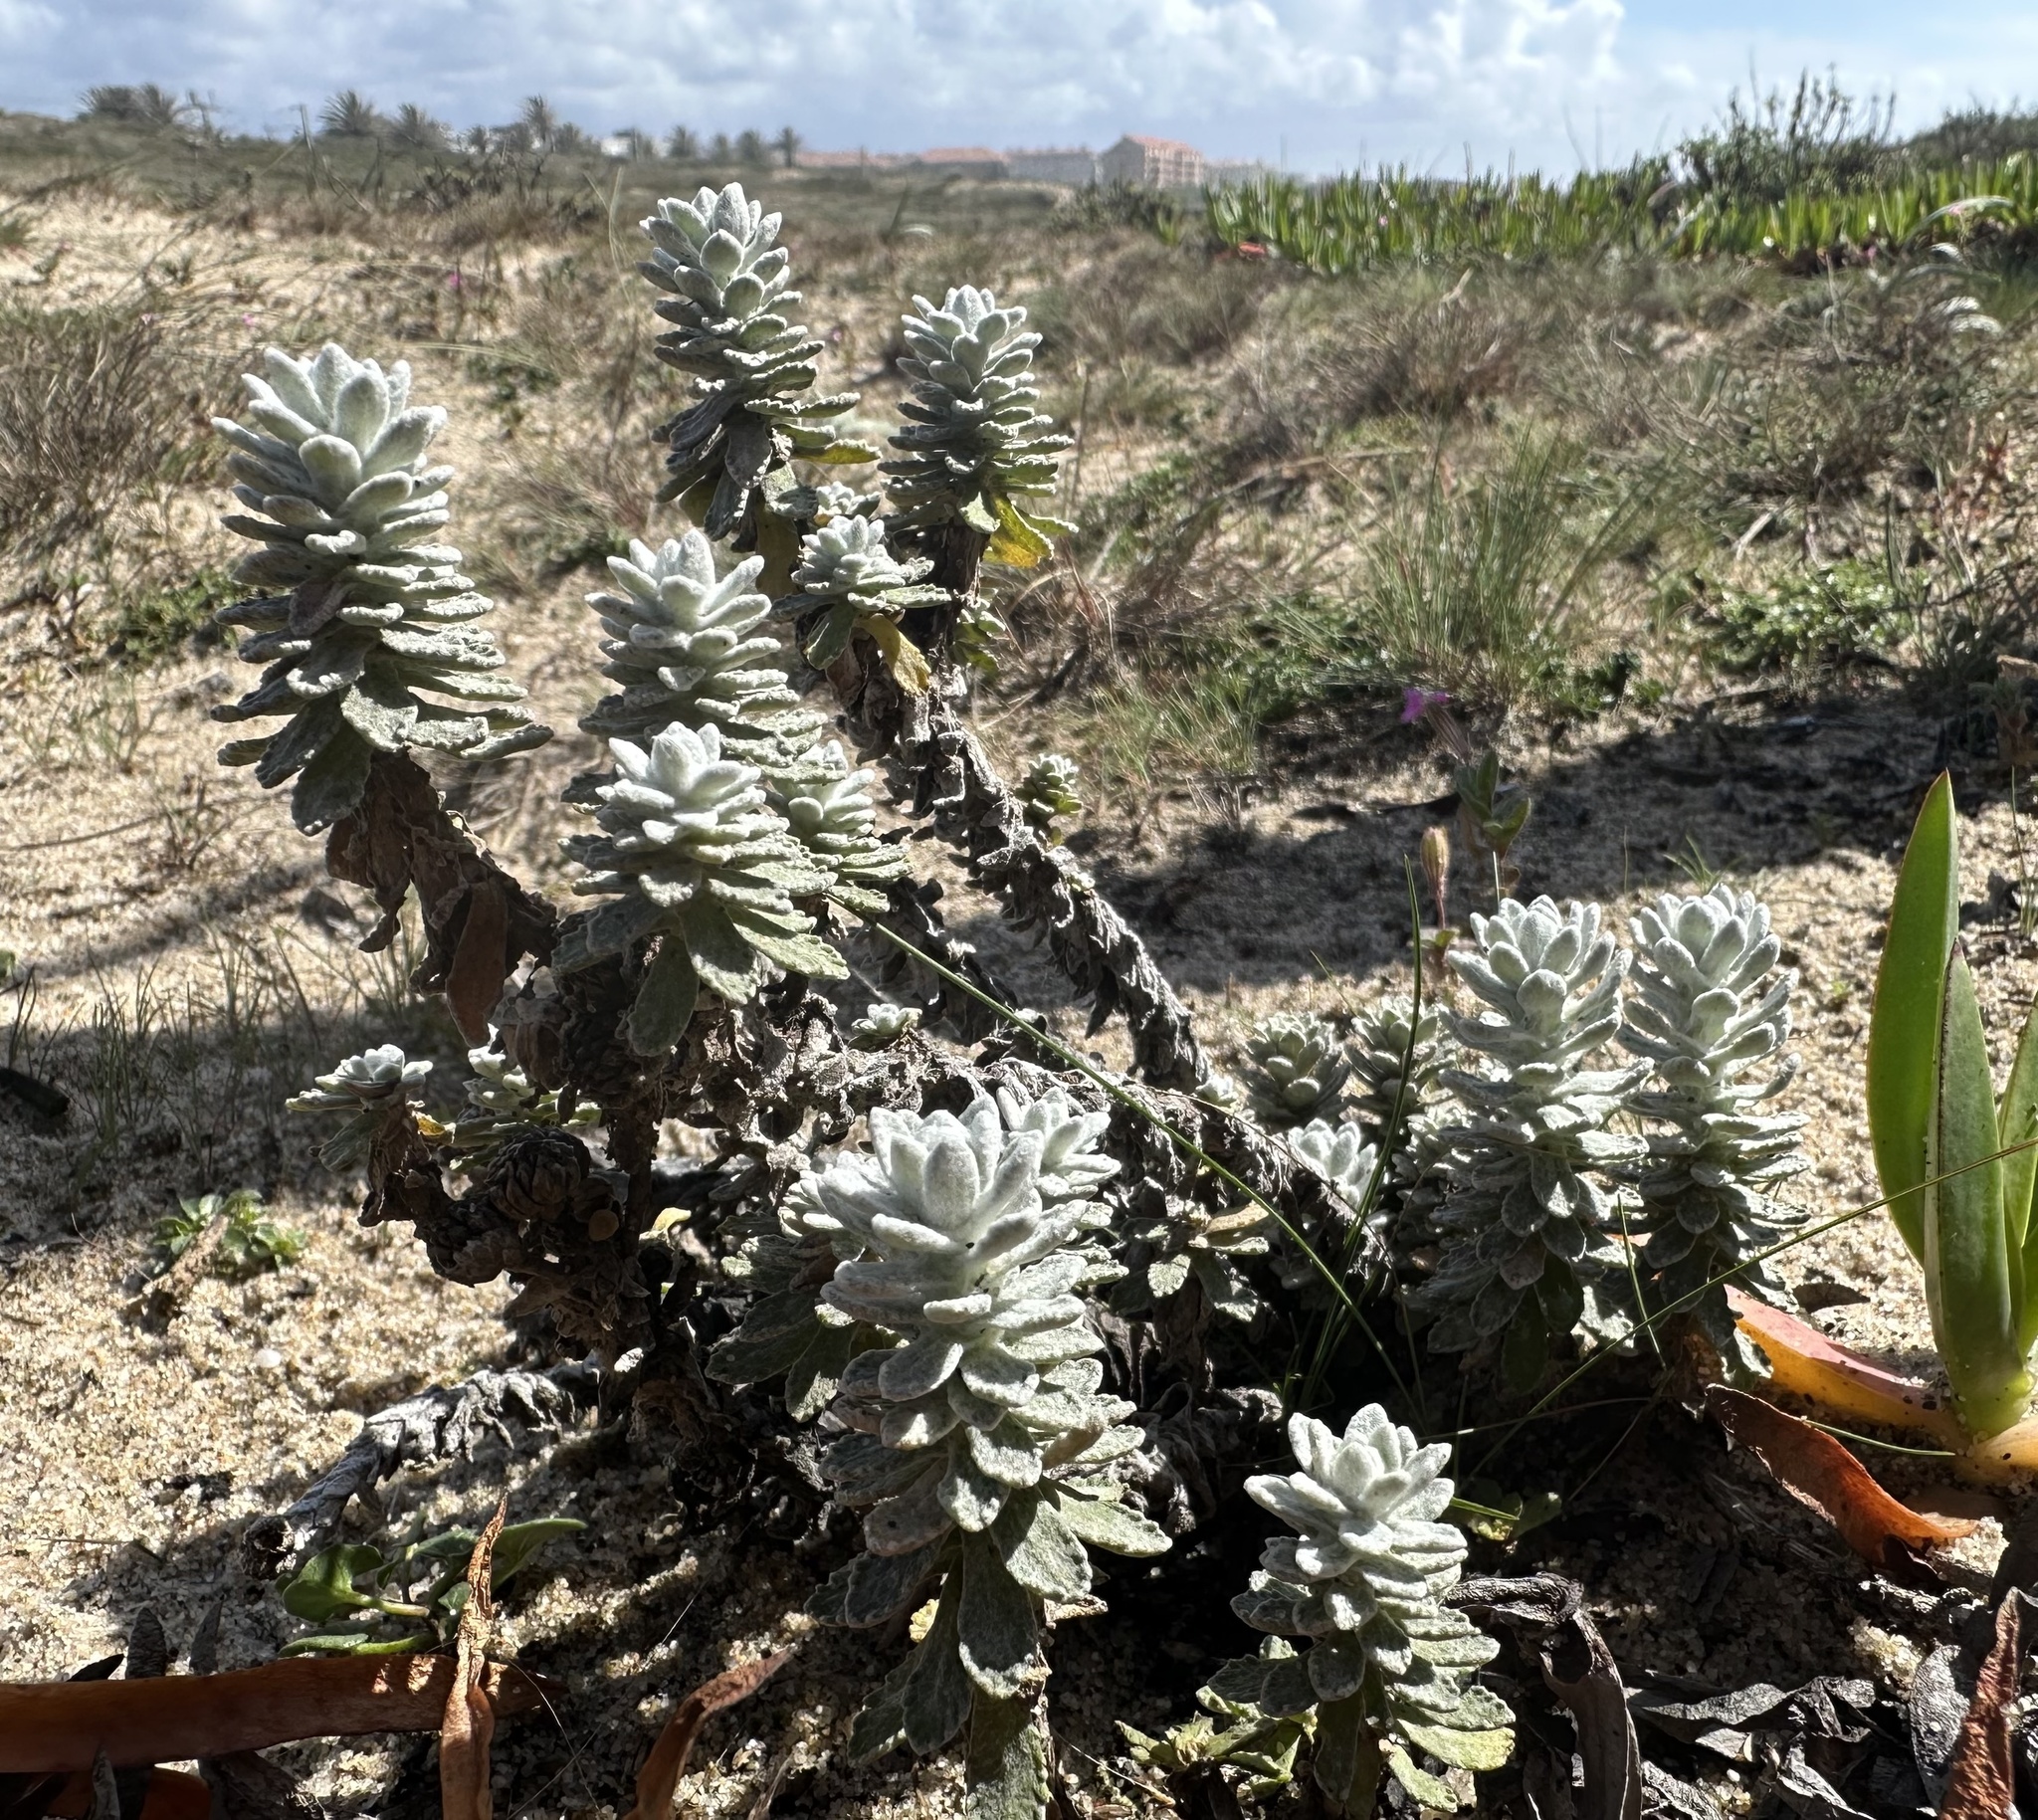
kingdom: Plantae
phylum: Tracheophyta
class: Magnoliopsida
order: Asterales
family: Asteraceae
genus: Achillea
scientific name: Achillea maritima
